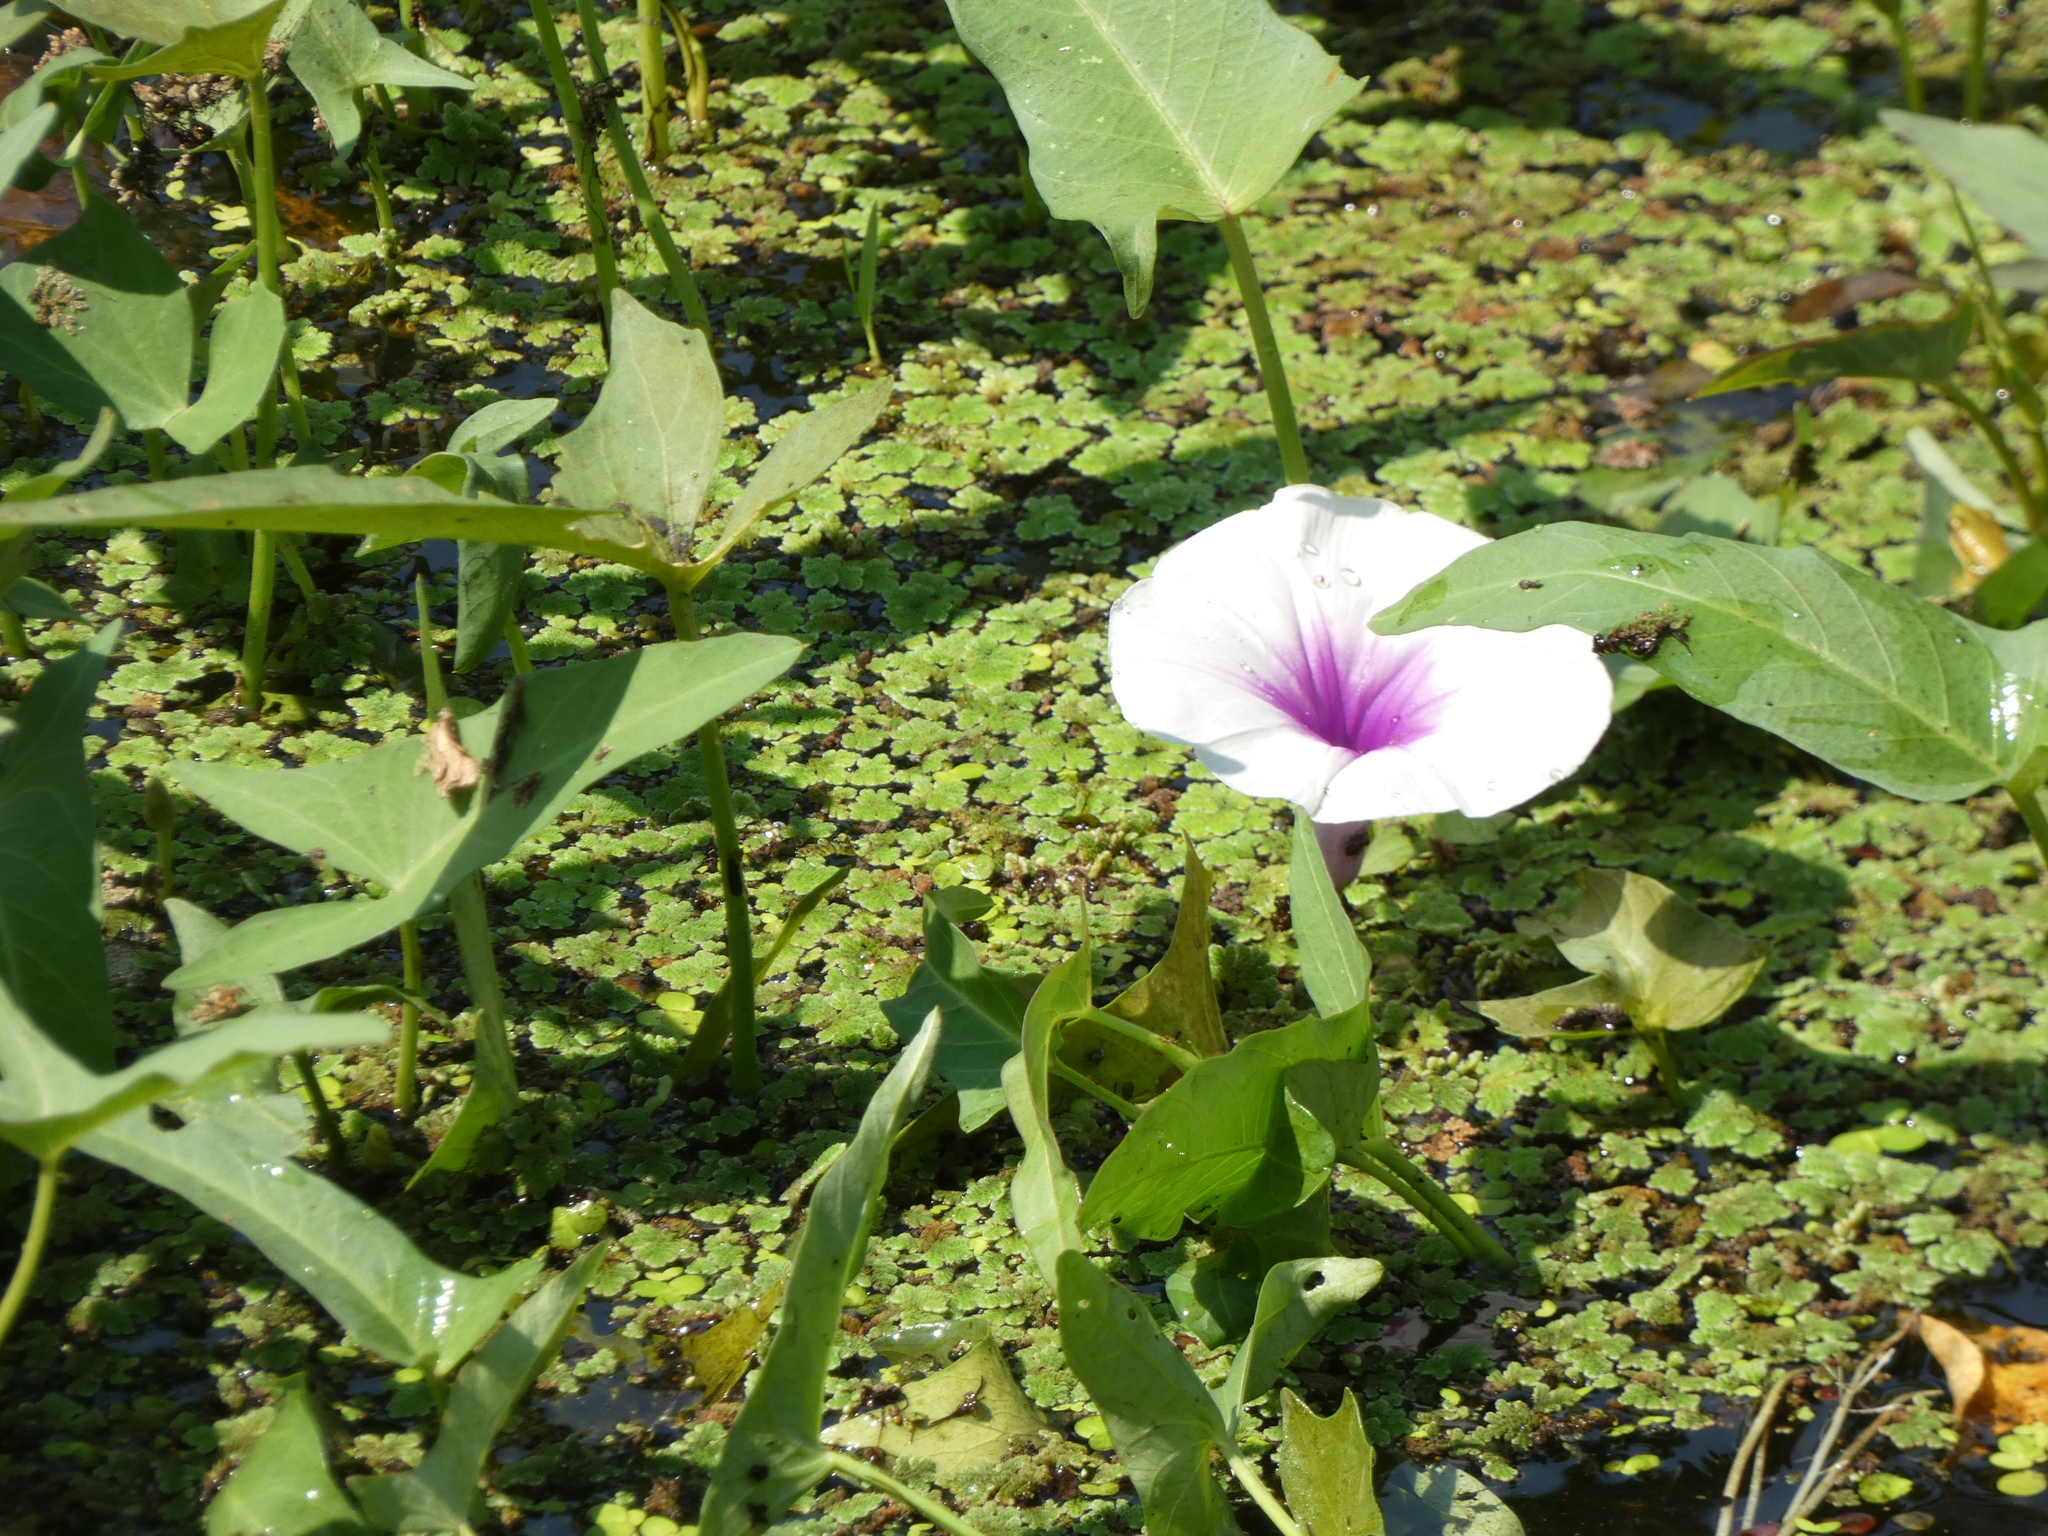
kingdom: Plantae
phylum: Tracheophyta
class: Magnoliopsida
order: Solanales
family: Convolvulaceae
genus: Ipomoea
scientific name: Ipomoea aquatica
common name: Swamp morning-glory
